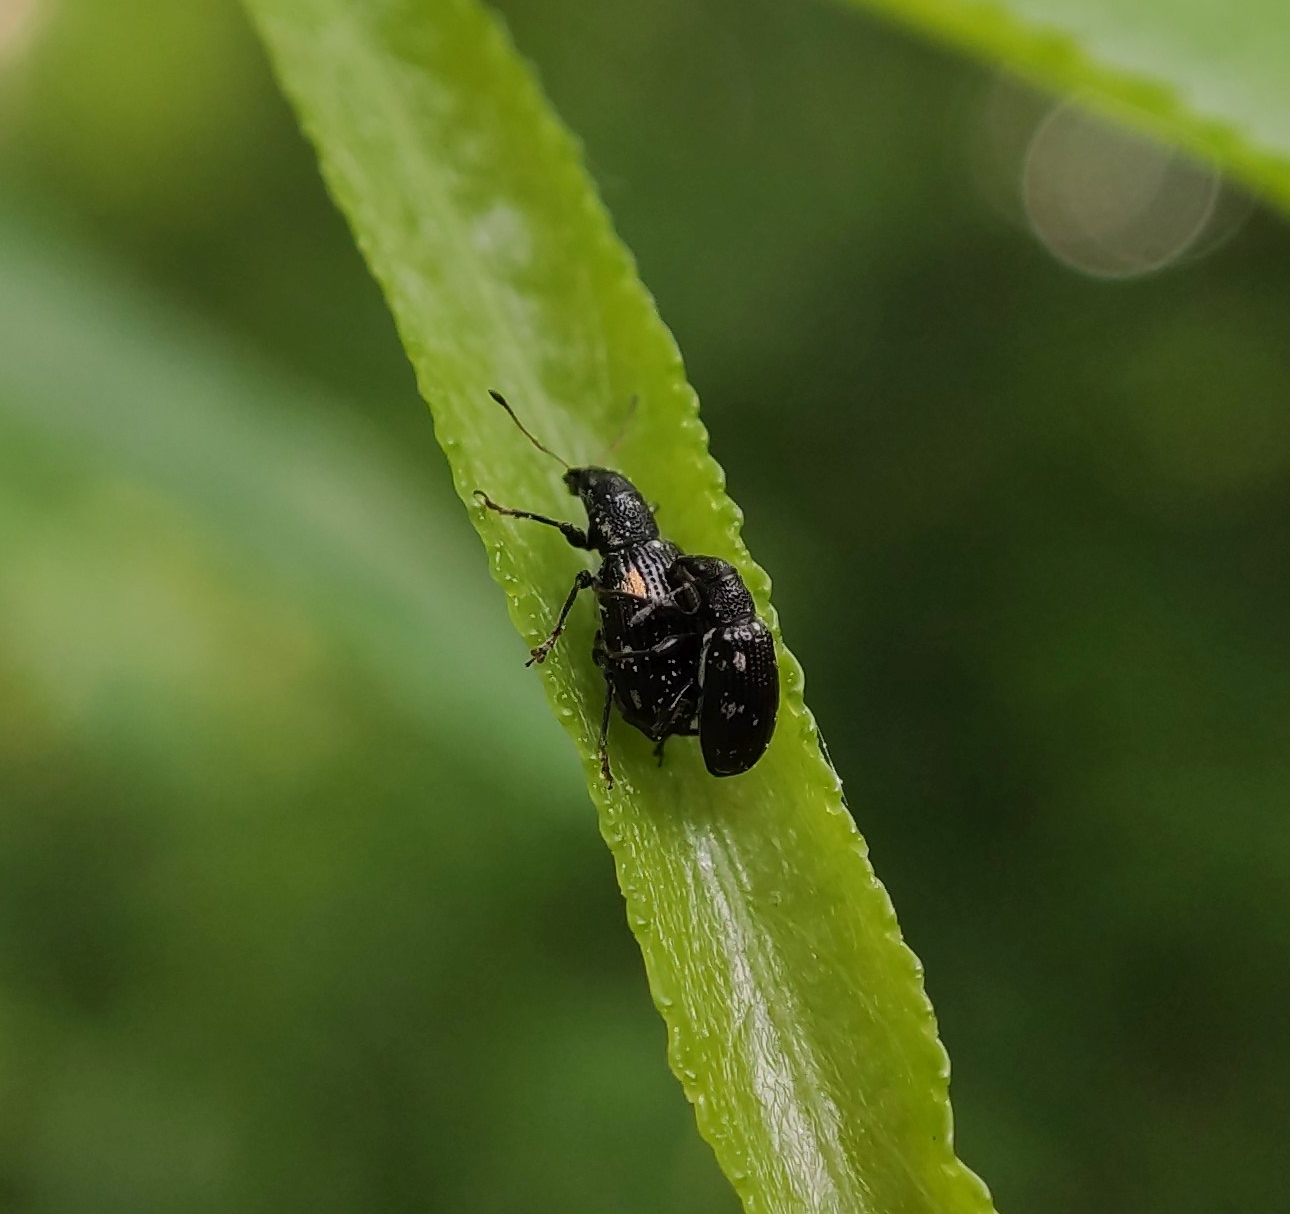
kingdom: Animalia
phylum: Arthropoda
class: Insecta
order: Coleoptera
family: Curculionidae
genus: Polydrusus
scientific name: Polydrusus picus
